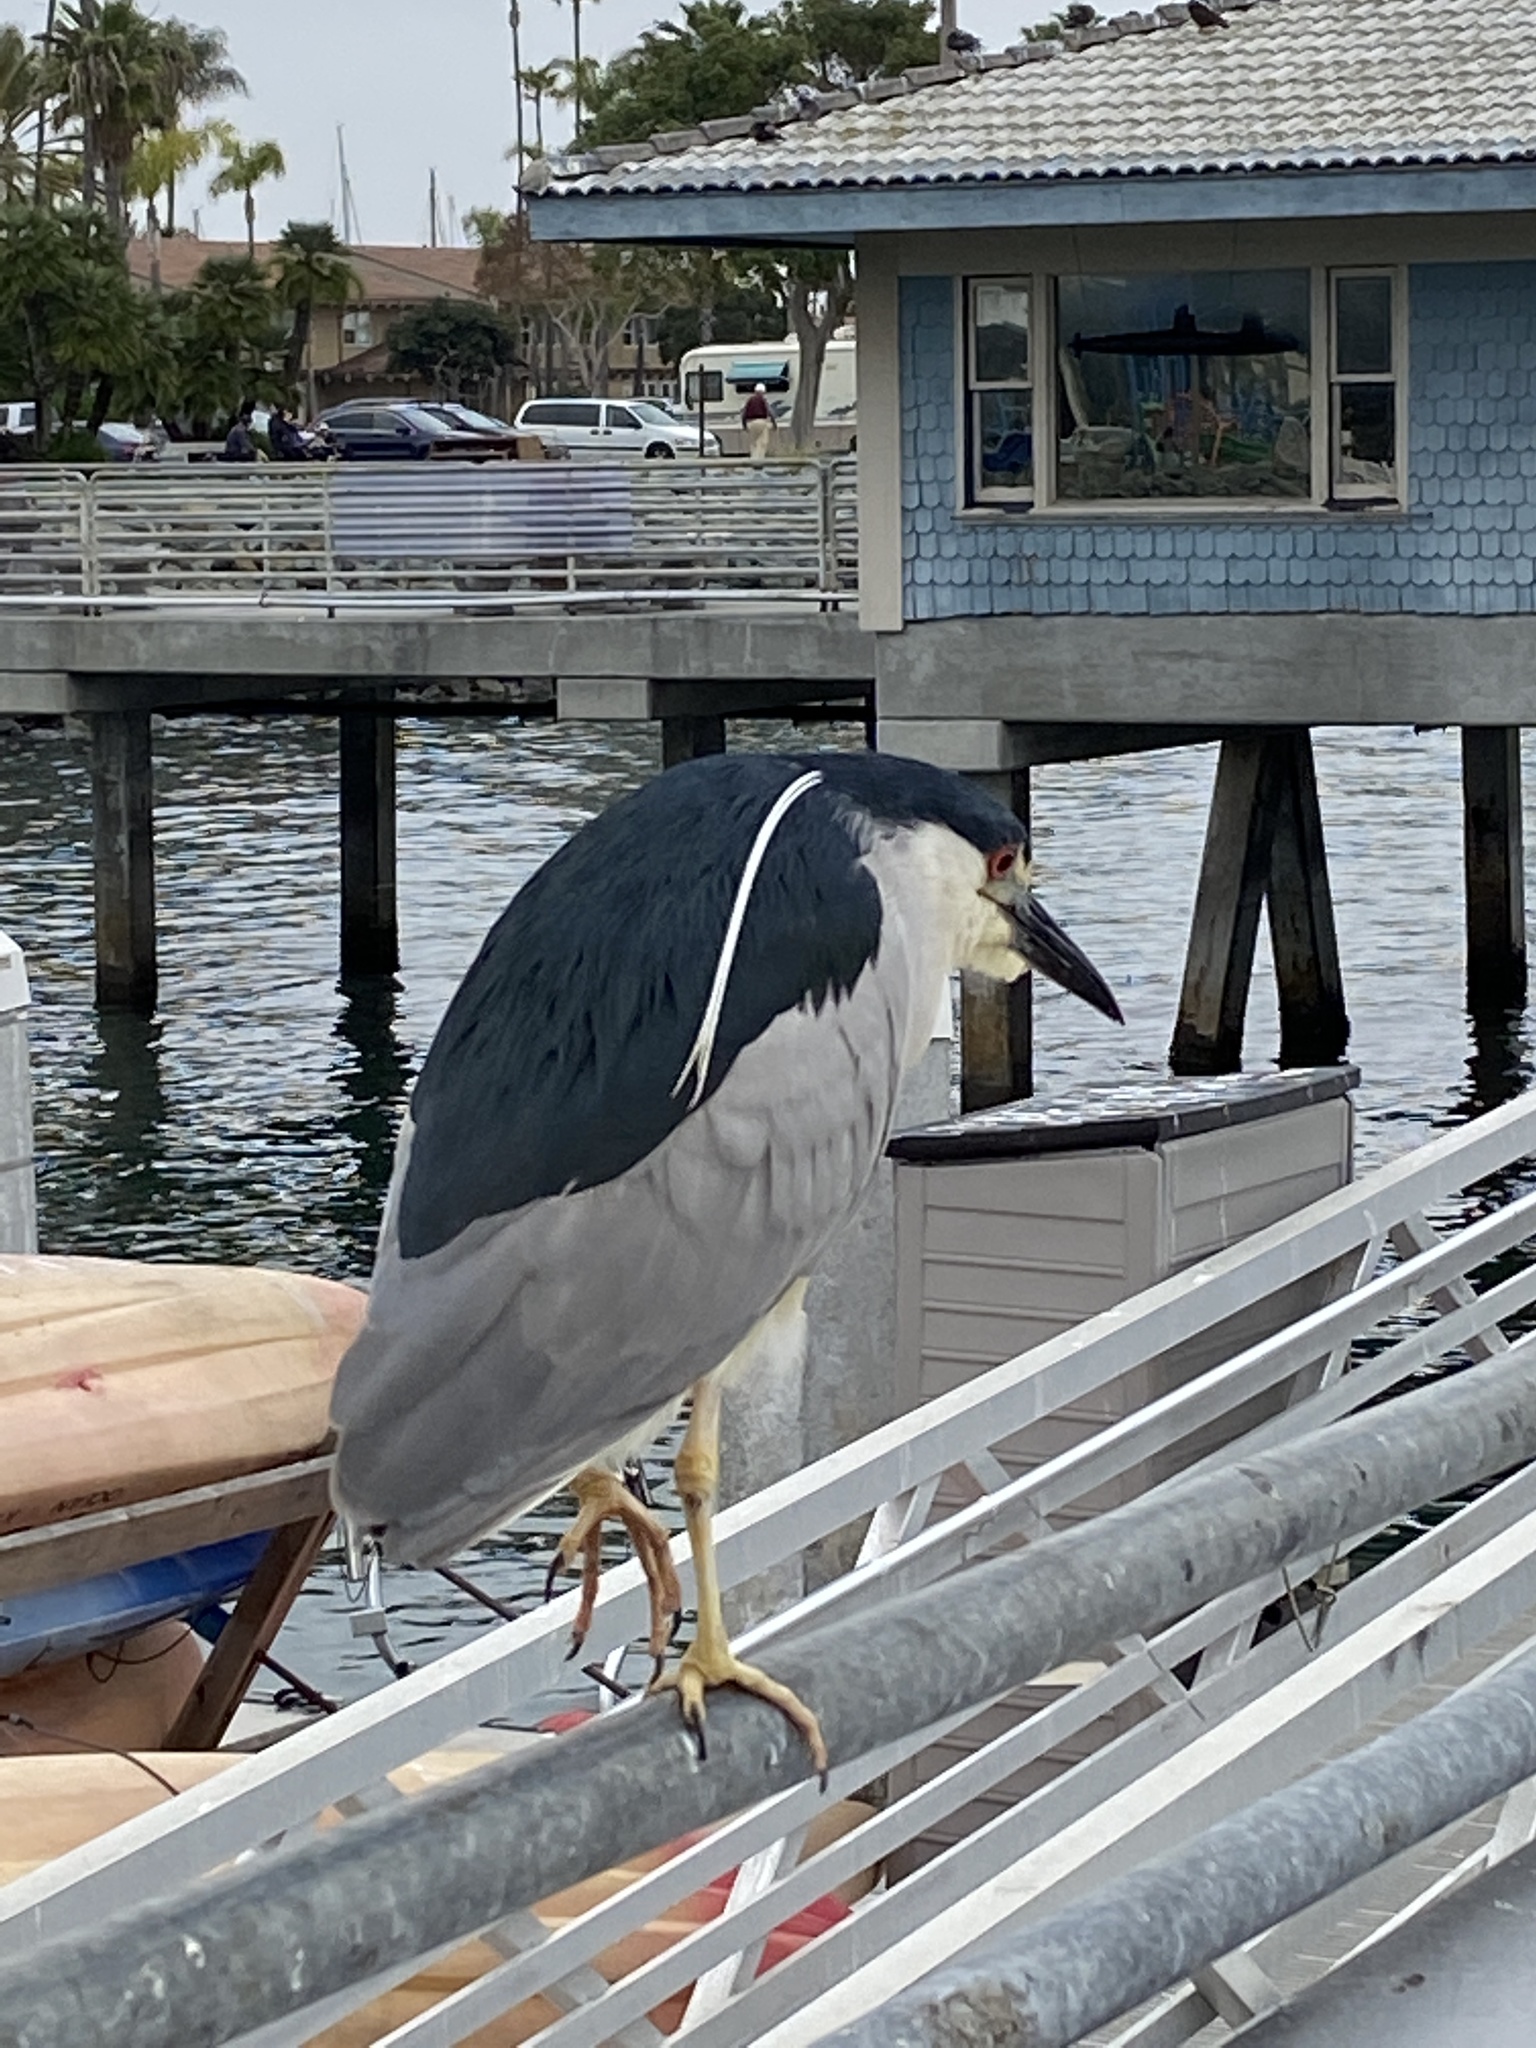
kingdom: Animalia
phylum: Chordata
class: Aves
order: Pelecaniformes
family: Ardeidae
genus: Nycticorax
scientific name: Nycticorax nycticorax
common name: Black-crowned night heron
